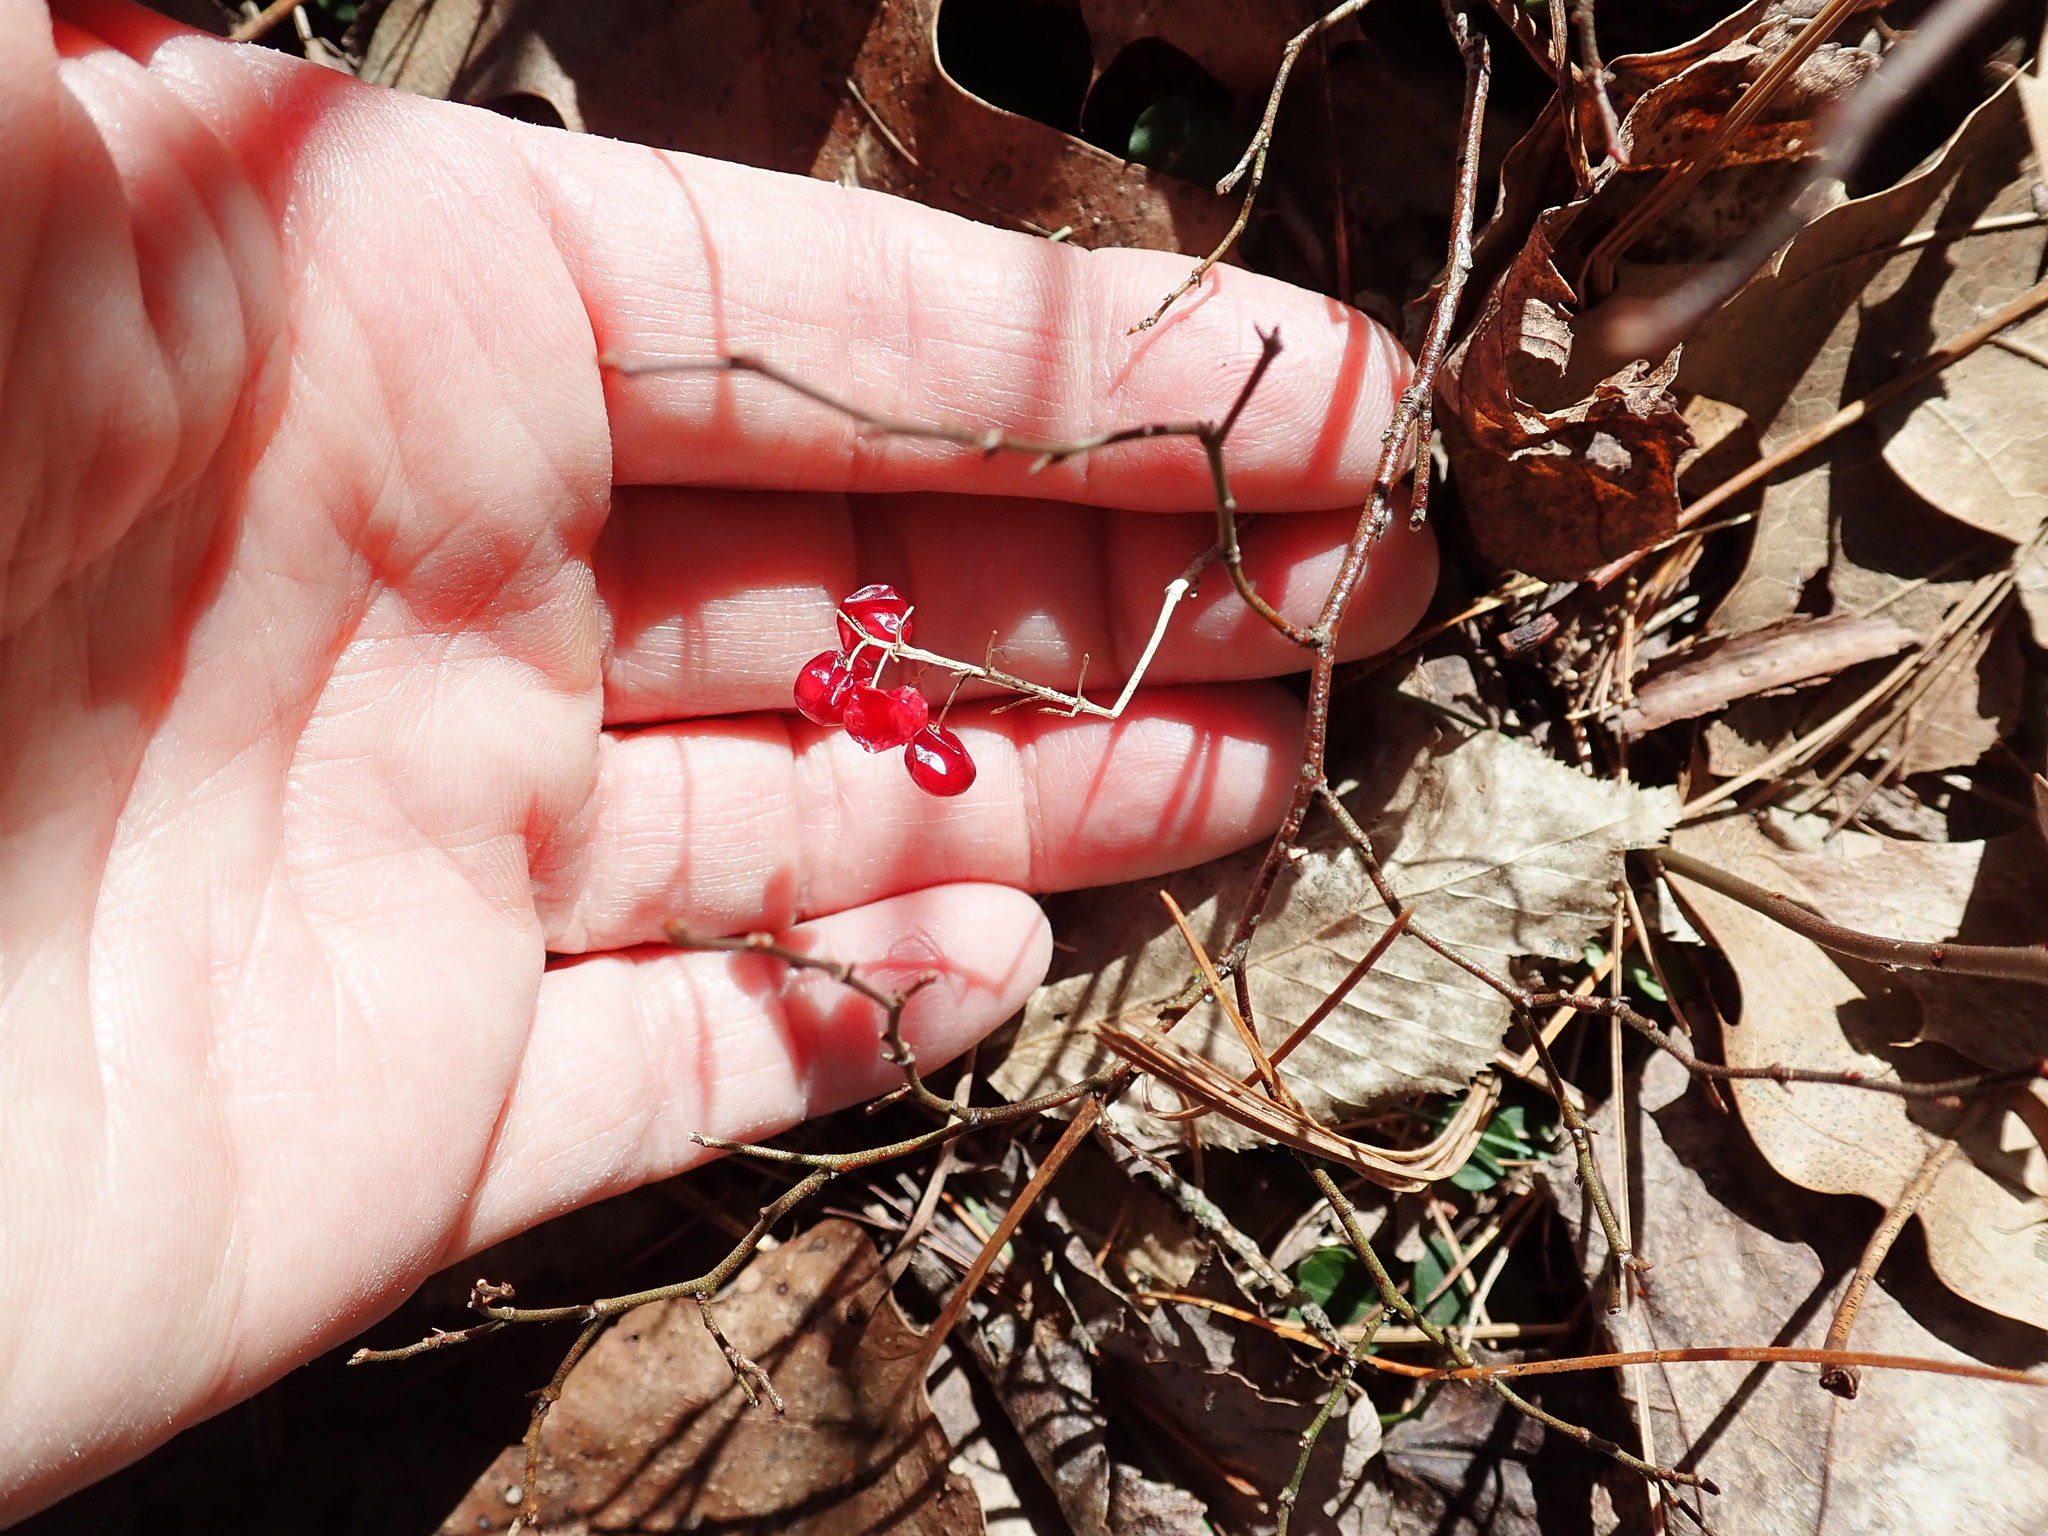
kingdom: Plantae
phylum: Tracheophyta
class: Liliopsida
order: Asparagales
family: Asparagaceae
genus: Maianthemum
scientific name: Maianthemum canadense
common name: False lily-of-the-valley
